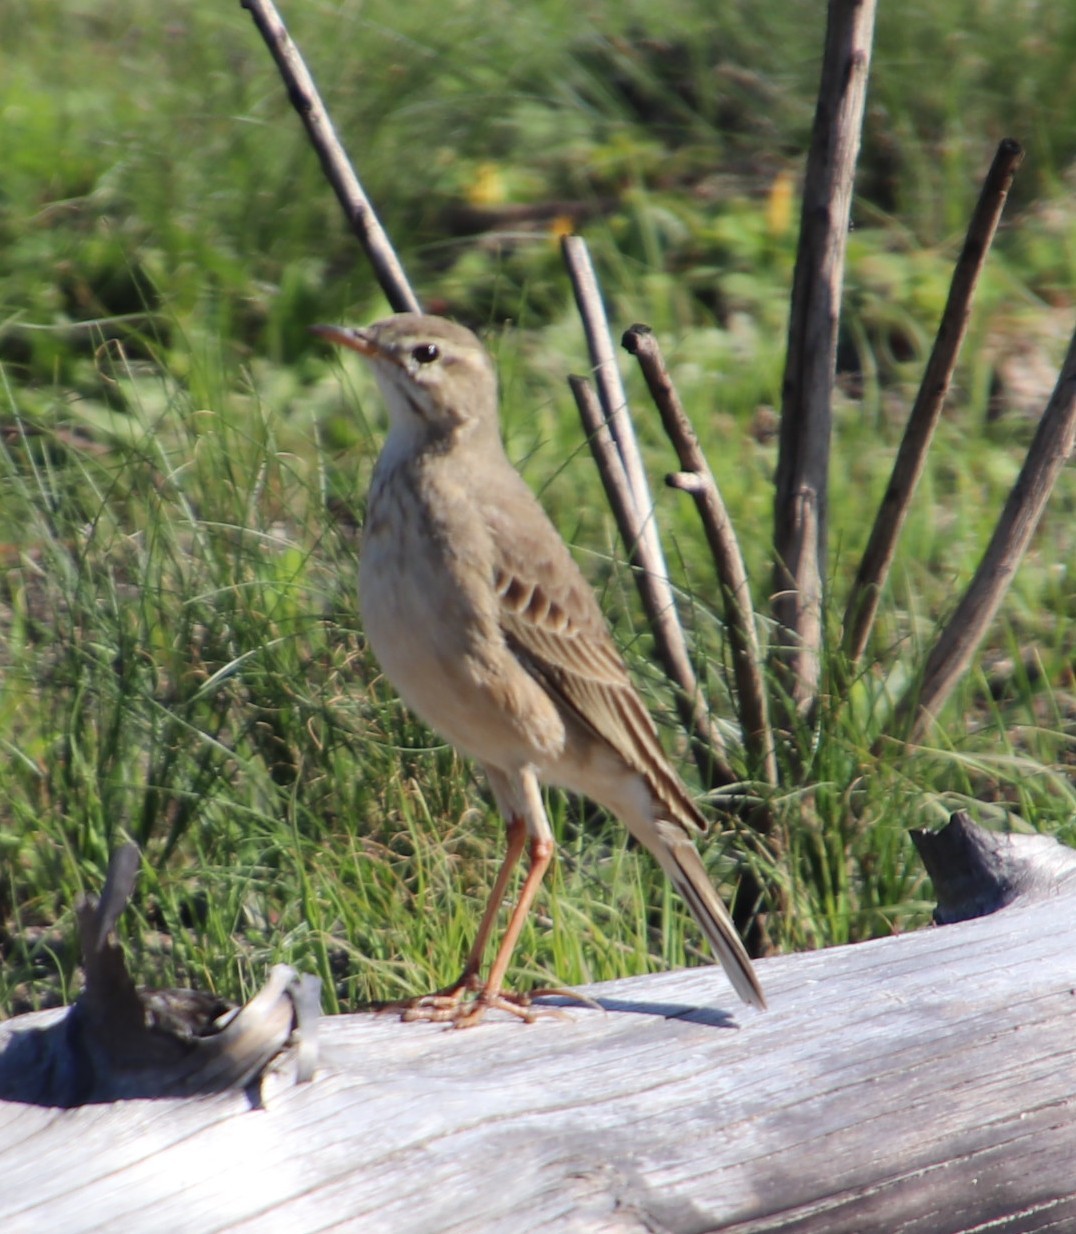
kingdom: Animalia
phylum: Chordata
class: Aves
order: Passeriformes
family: Motacillidae
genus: Anthus
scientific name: Anthus leucophrys
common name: Plain-backed pipit
